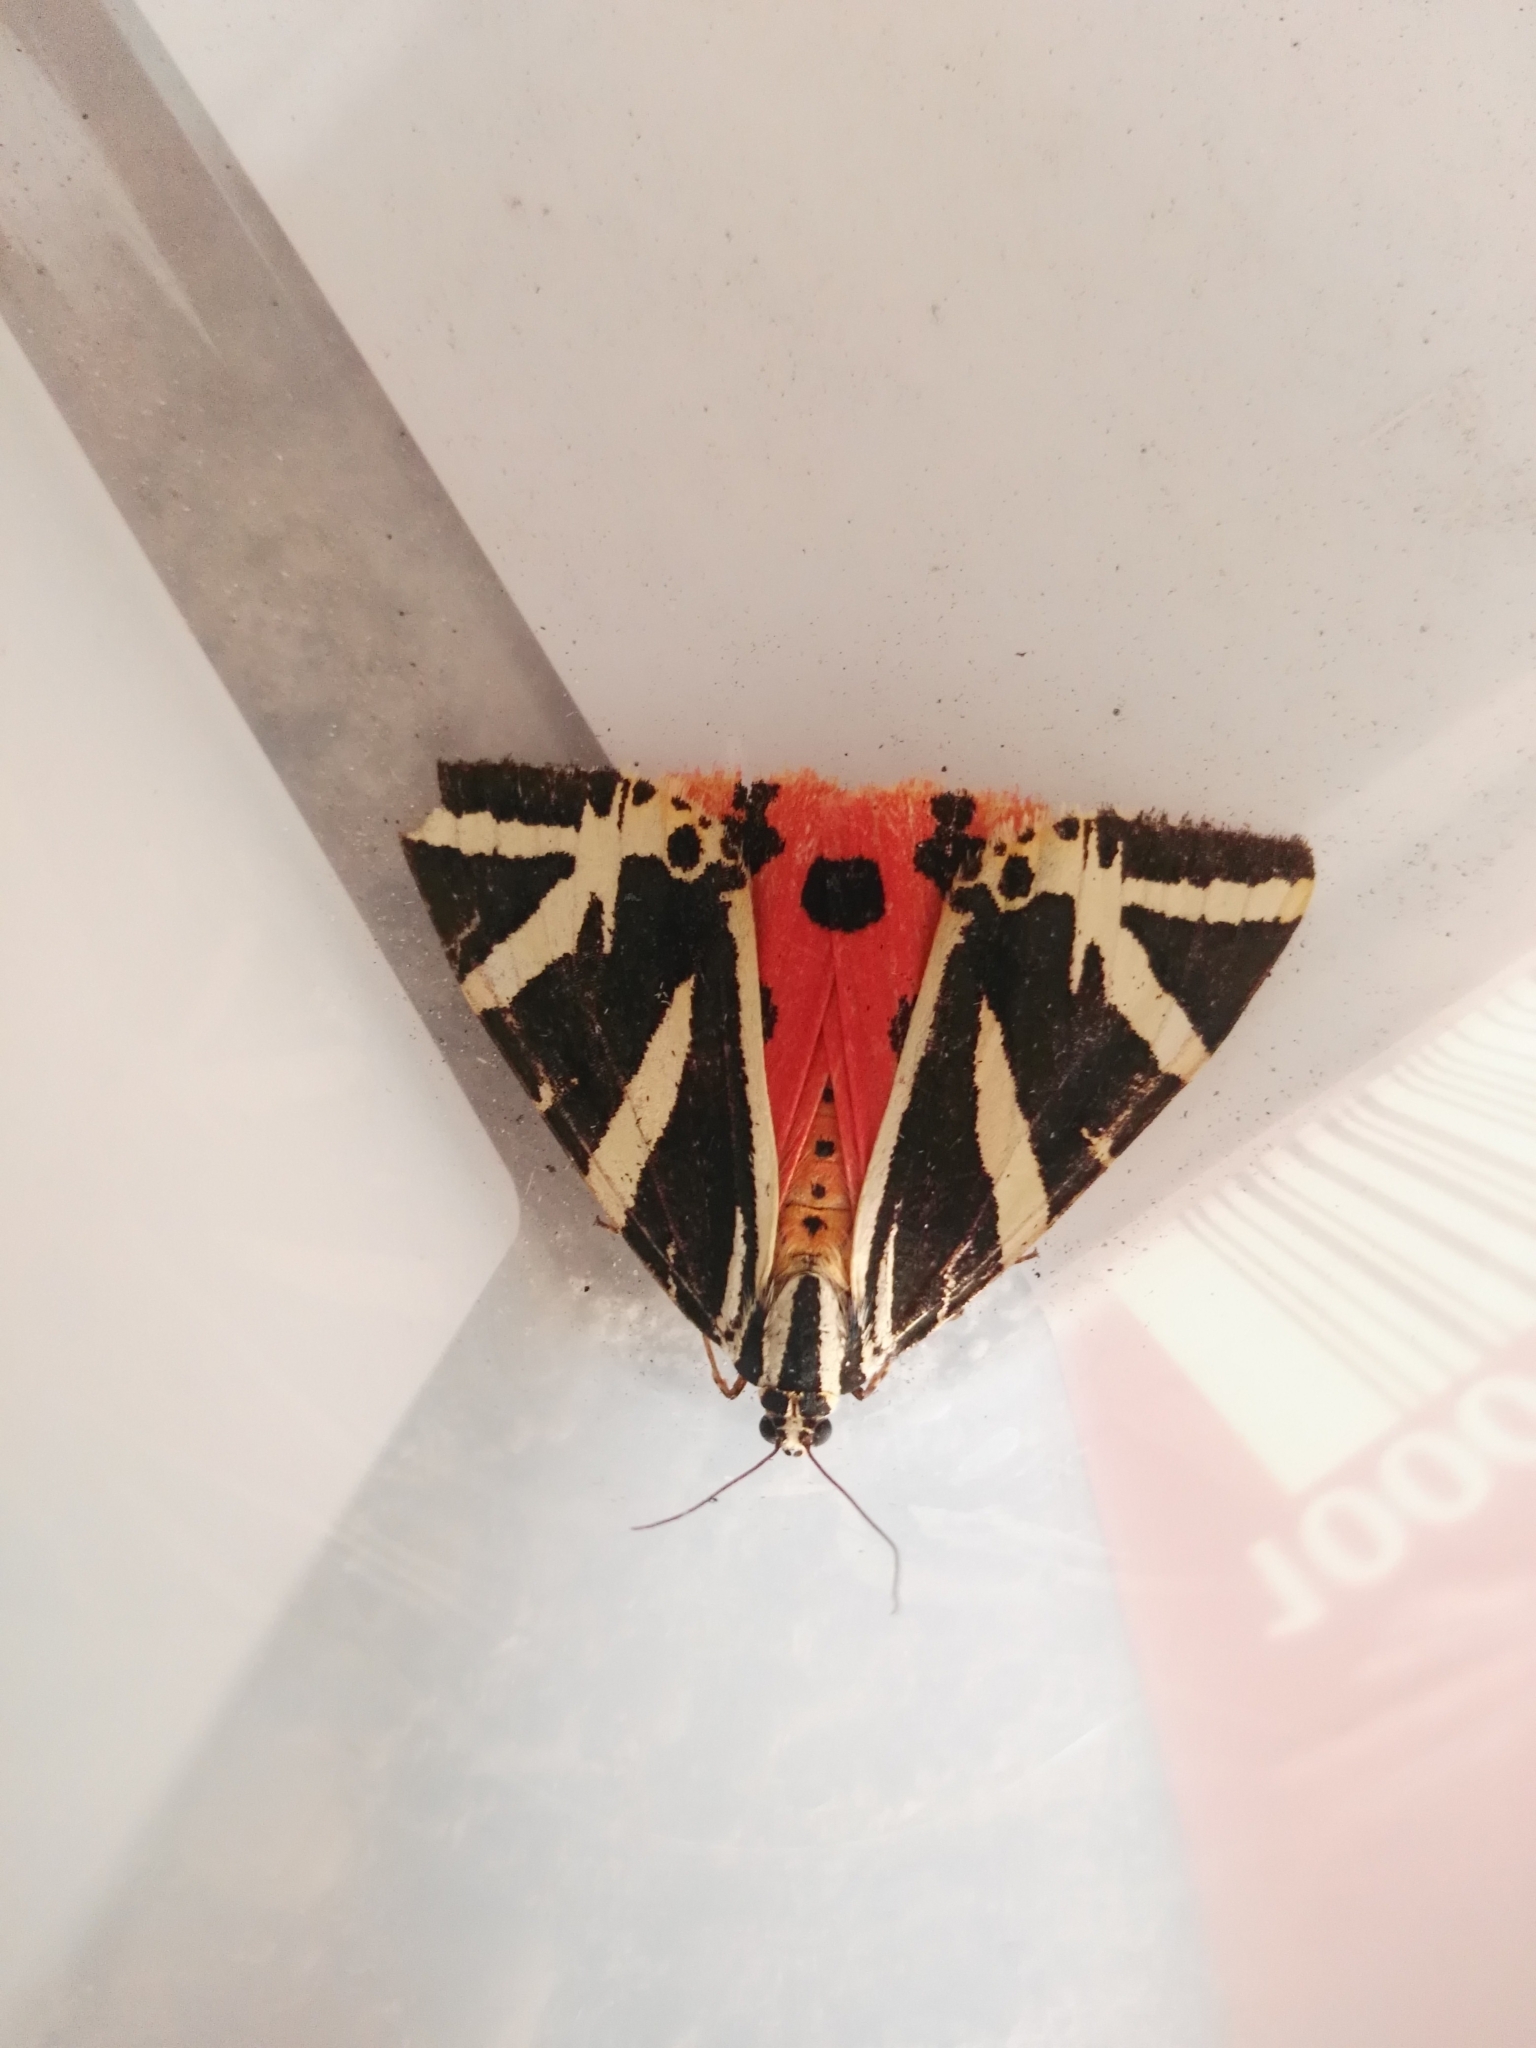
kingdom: Animalia
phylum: Arthropoda
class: Insecta
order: Lepidoptera
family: Erebidae
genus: Euplagia
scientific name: Euplagia quadripunctaria
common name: Jersey tiger
